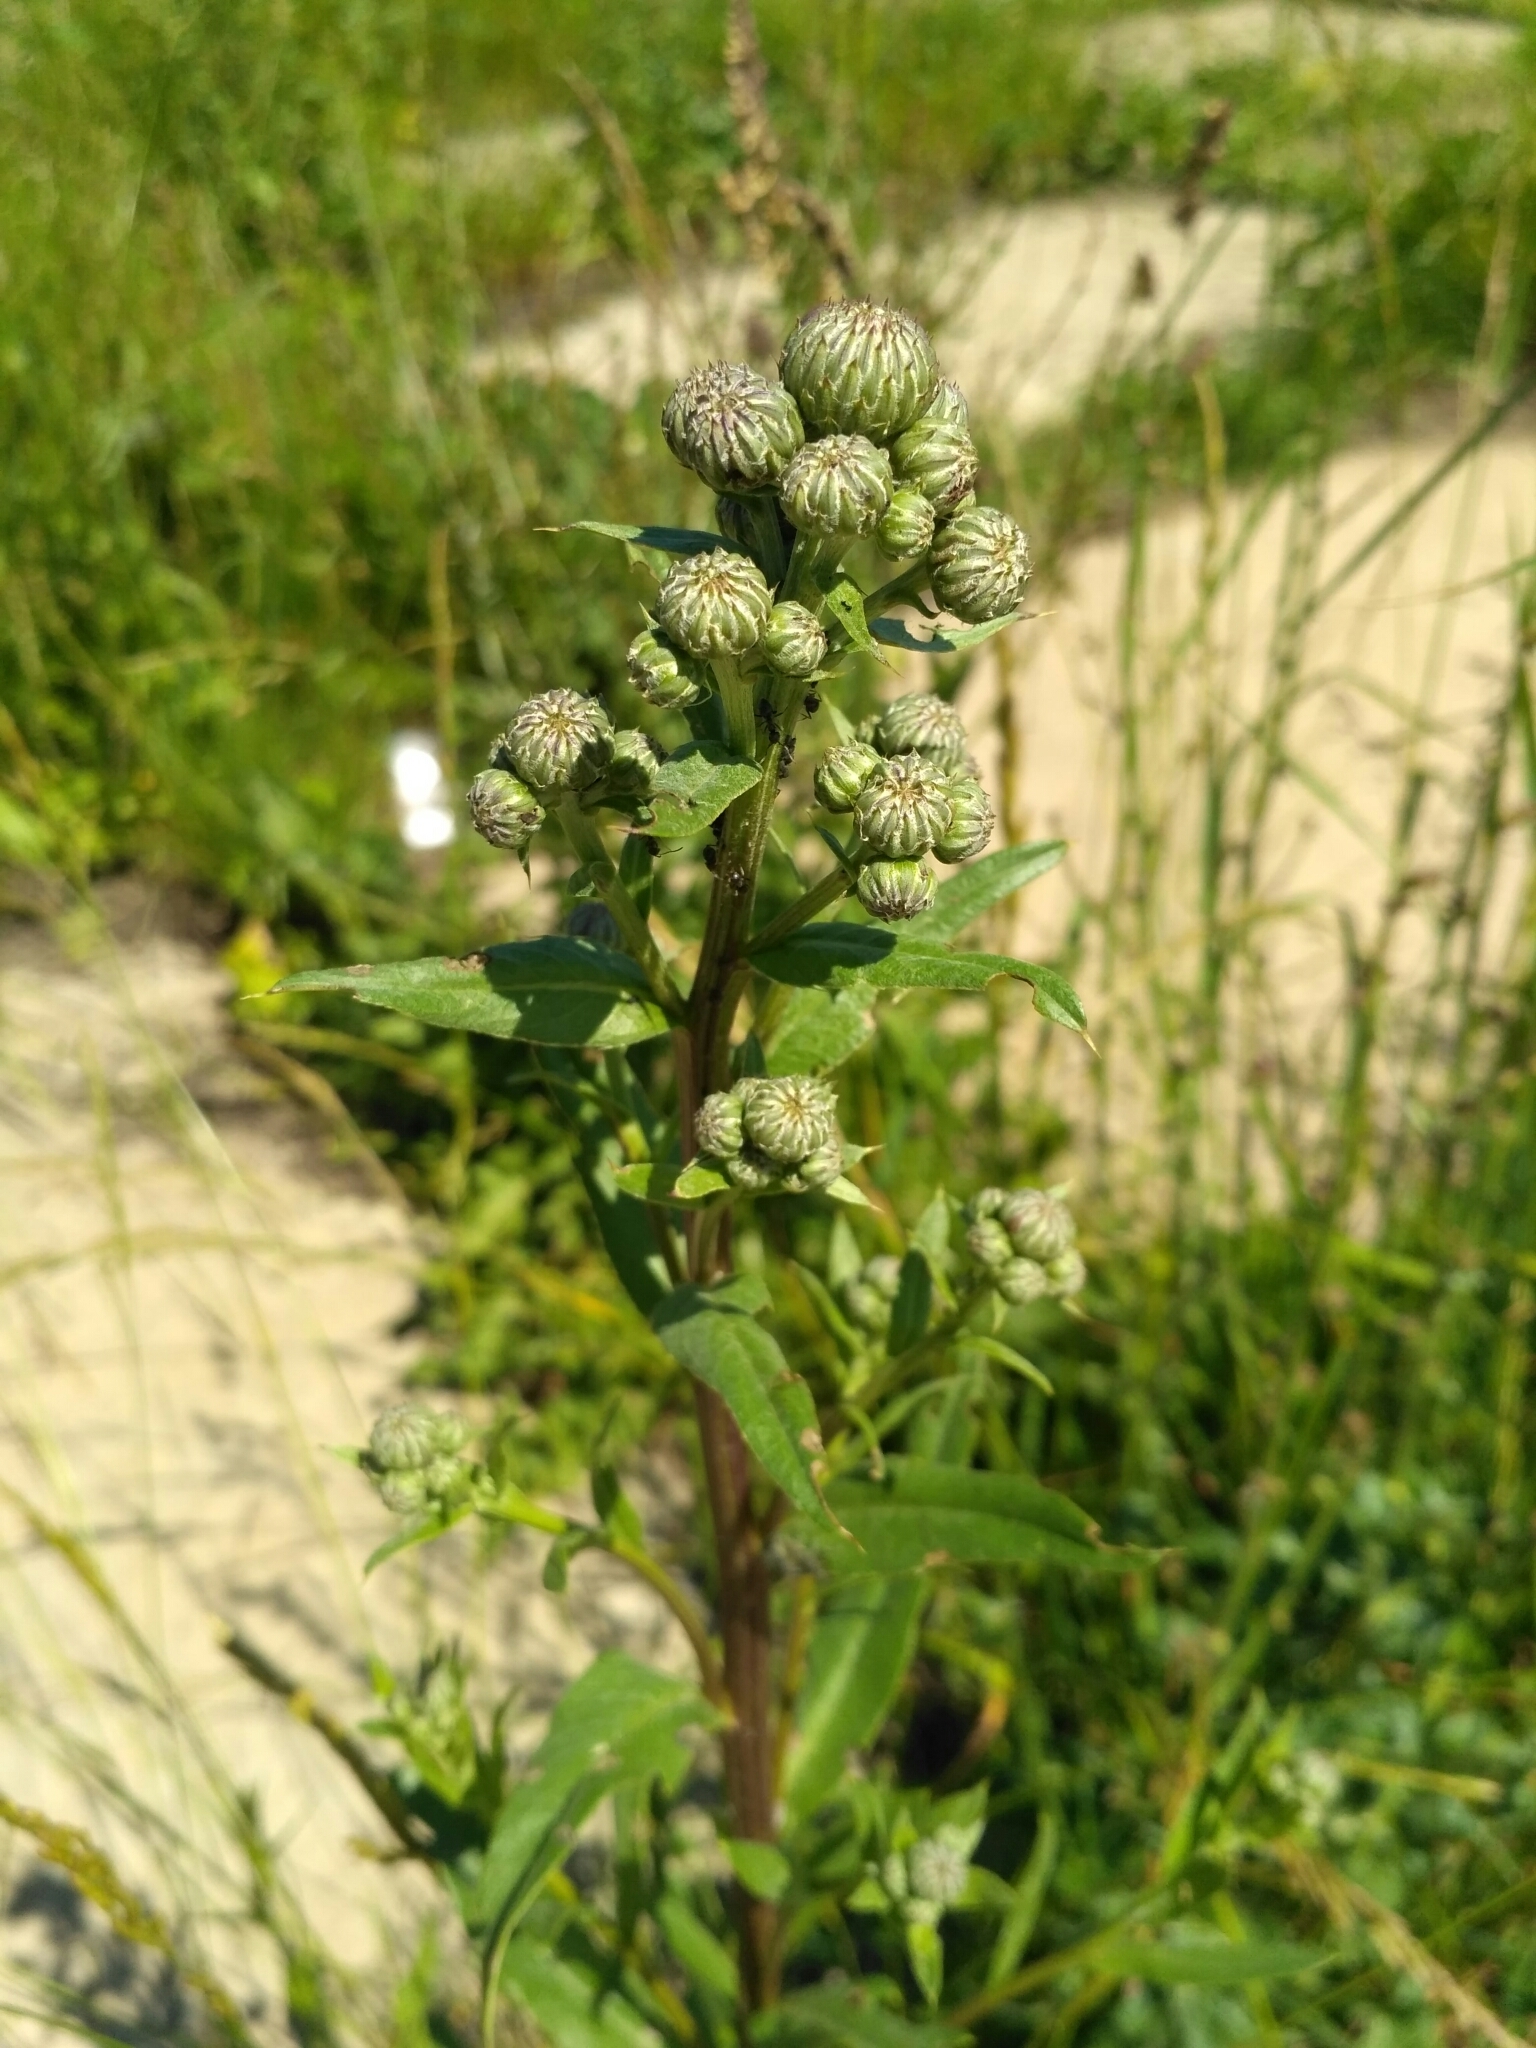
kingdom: Plantae
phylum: Tracheophyta
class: Magnoliopsida
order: Asterales
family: Asteraceae
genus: Cirsium
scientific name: Cirsium arvense
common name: Creeping thistle
